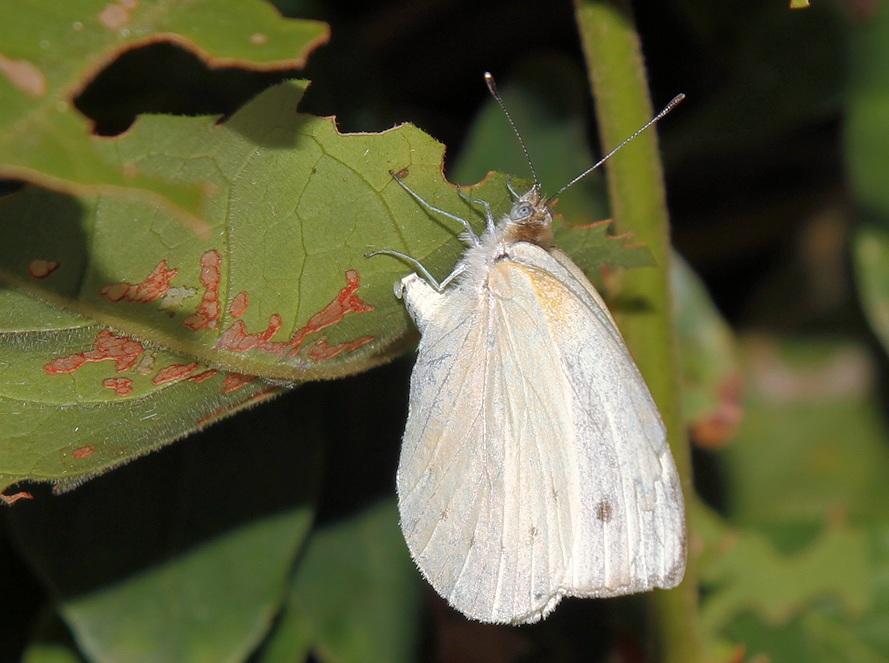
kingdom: Animalia
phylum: Arthropoda
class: Insecta
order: Lepidoptera
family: Pieridae
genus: Dixeia
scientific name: Dixeia pigea
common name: Ant-heap small white
